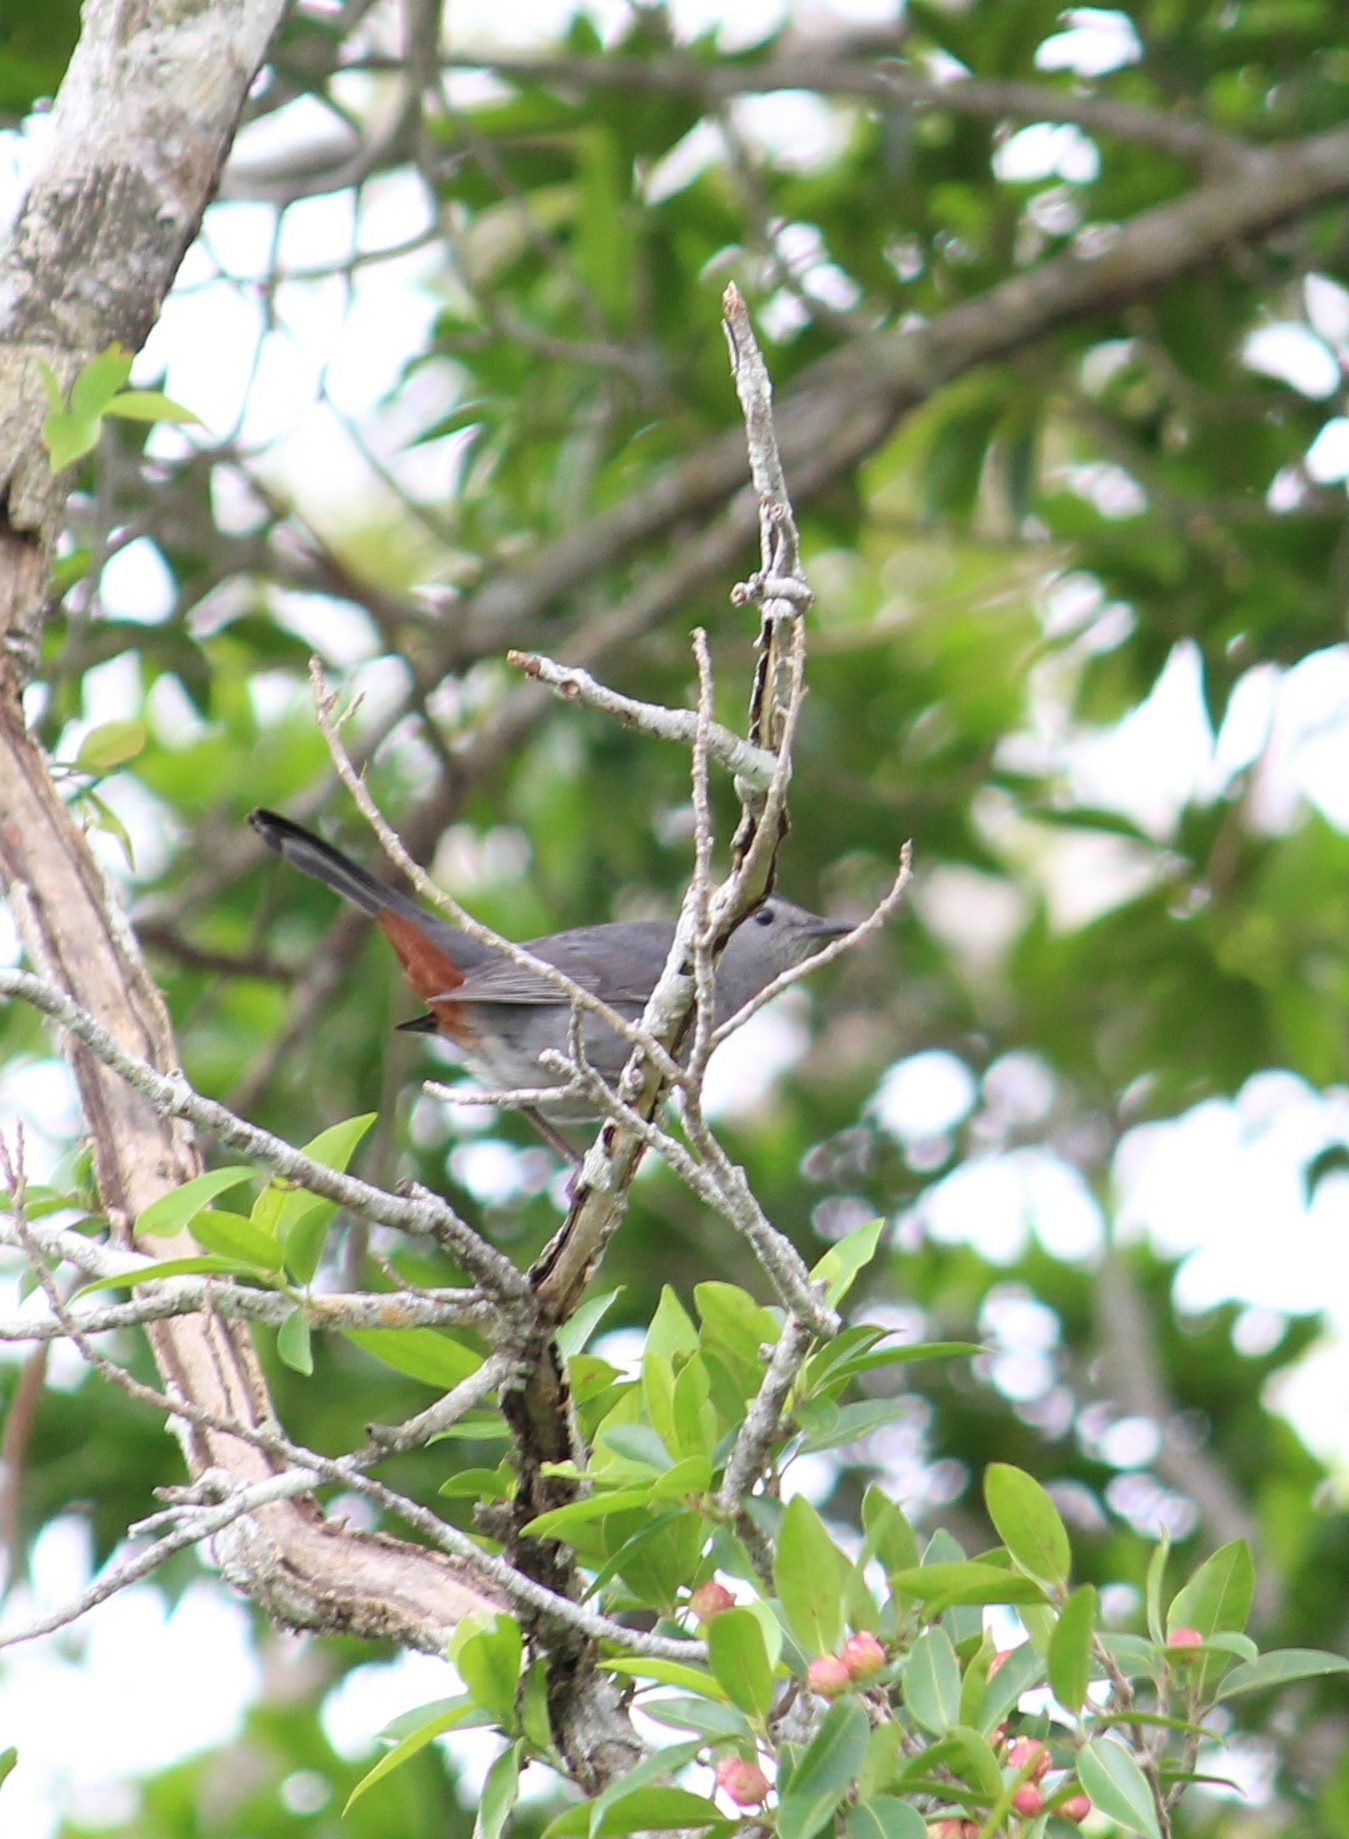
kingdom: Animalia
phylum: Chordata
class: Aves
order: Passeriformes
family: Mimidae
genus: Dumetella
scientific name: Dumetella carolinensis
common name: Gray catbird
